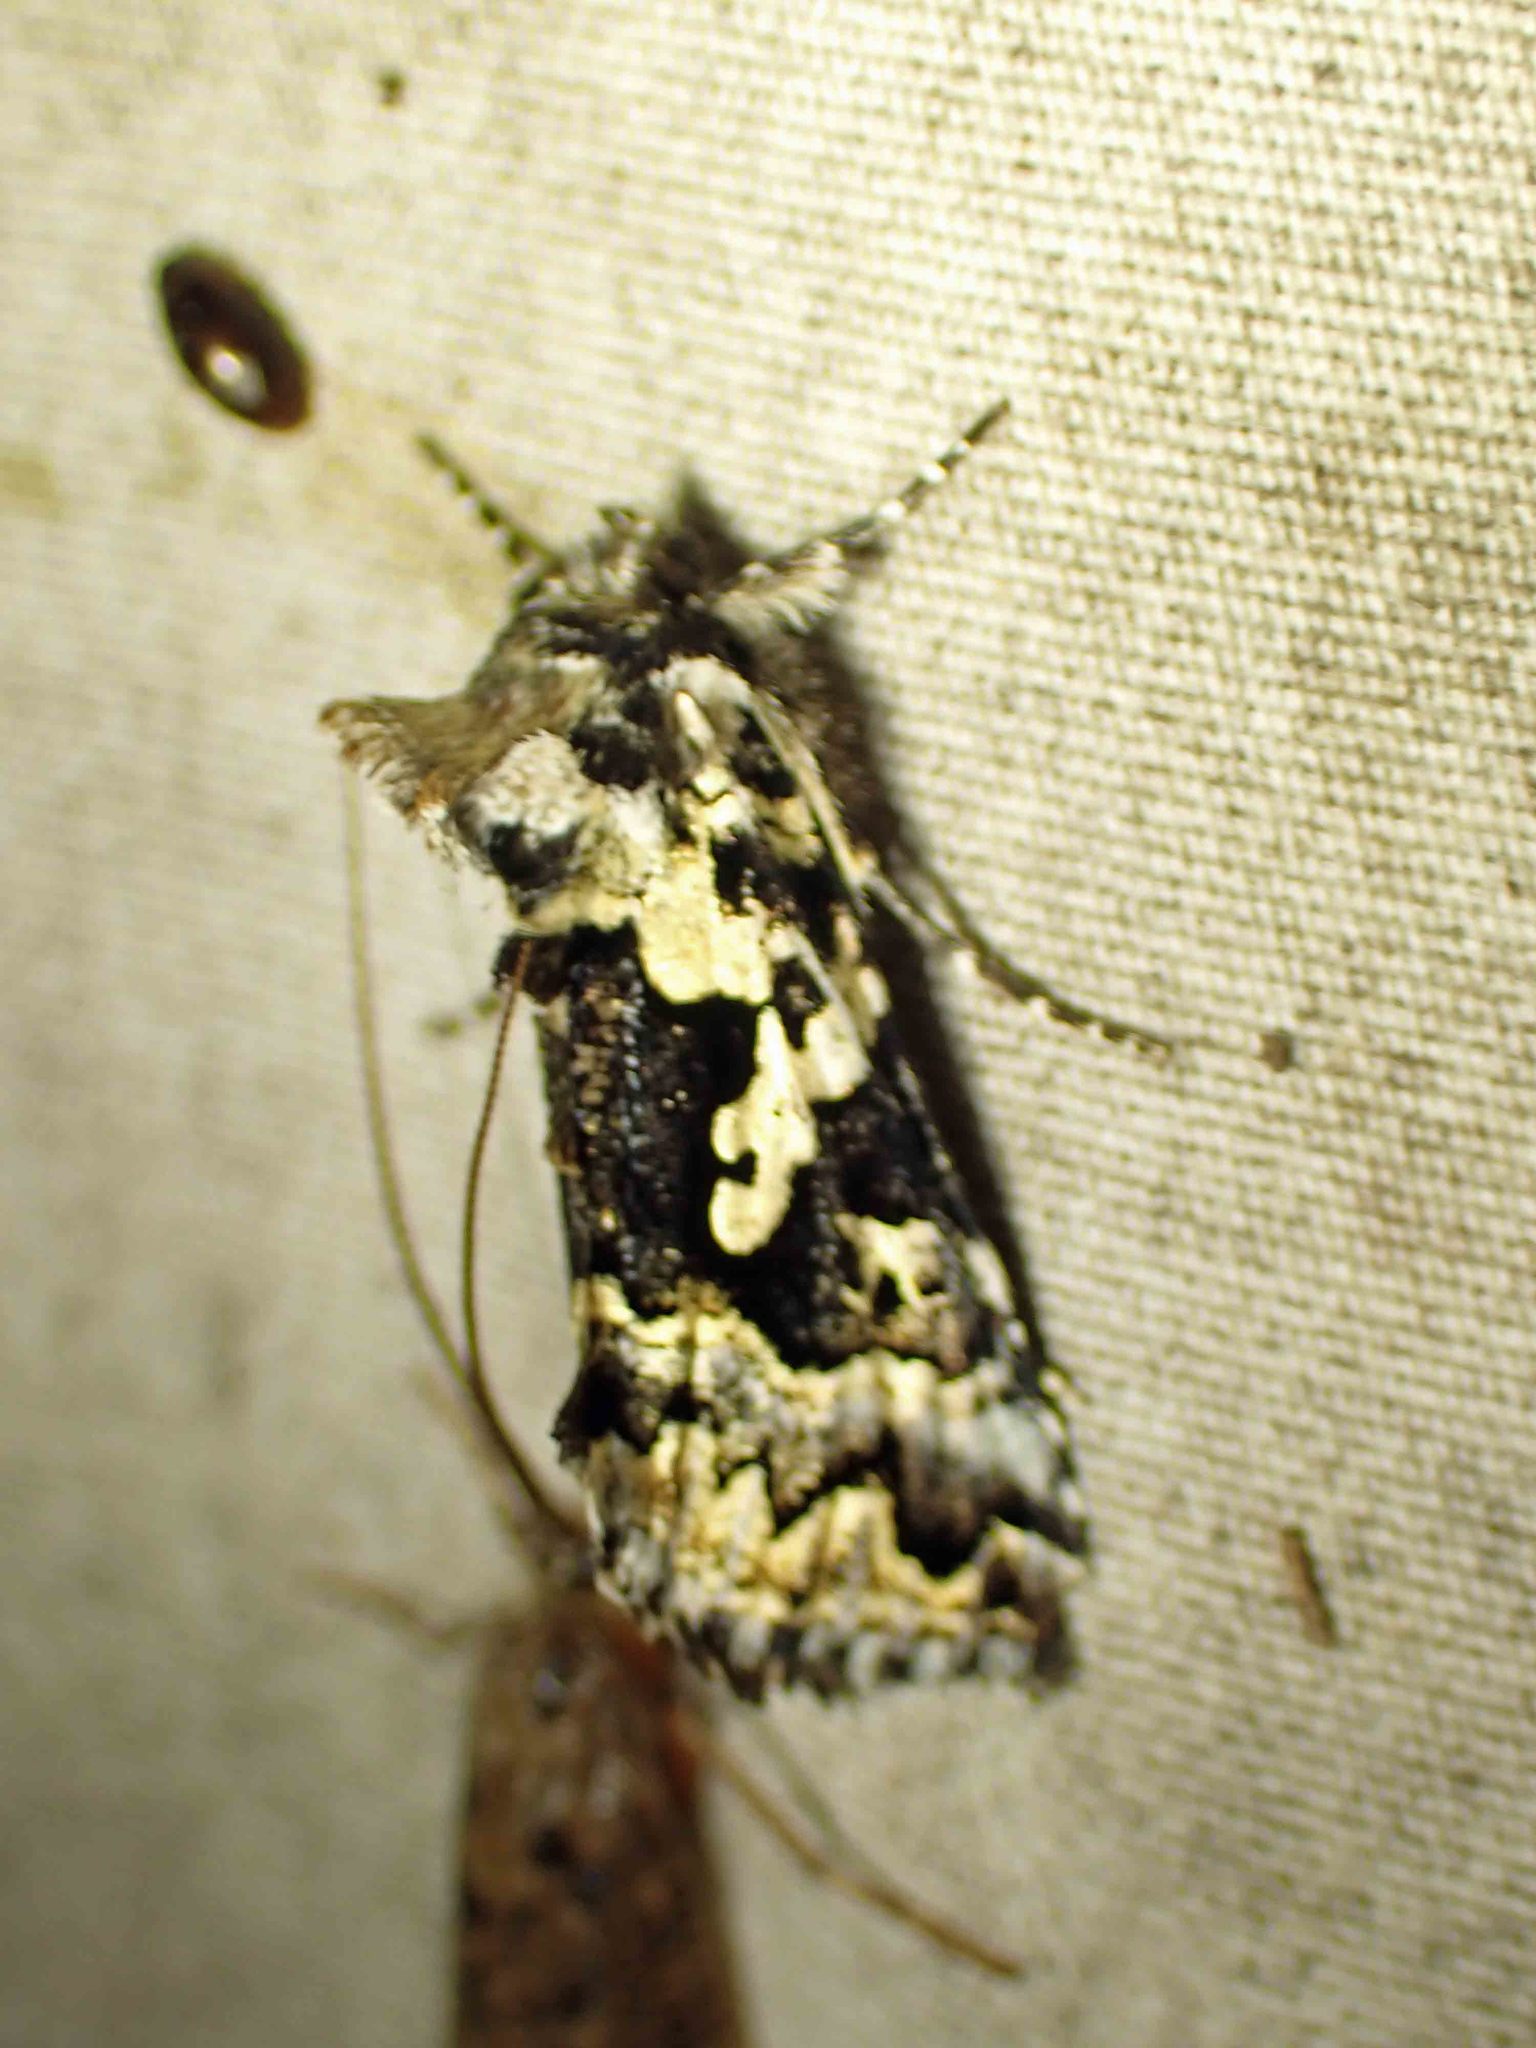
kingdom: Animalia
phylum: Arthropoda
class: Insecta
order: Lepidoptera
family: Noctuidae
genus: Syngrapha
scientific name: Syngrapha rectangula
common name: Angulated cutworm
